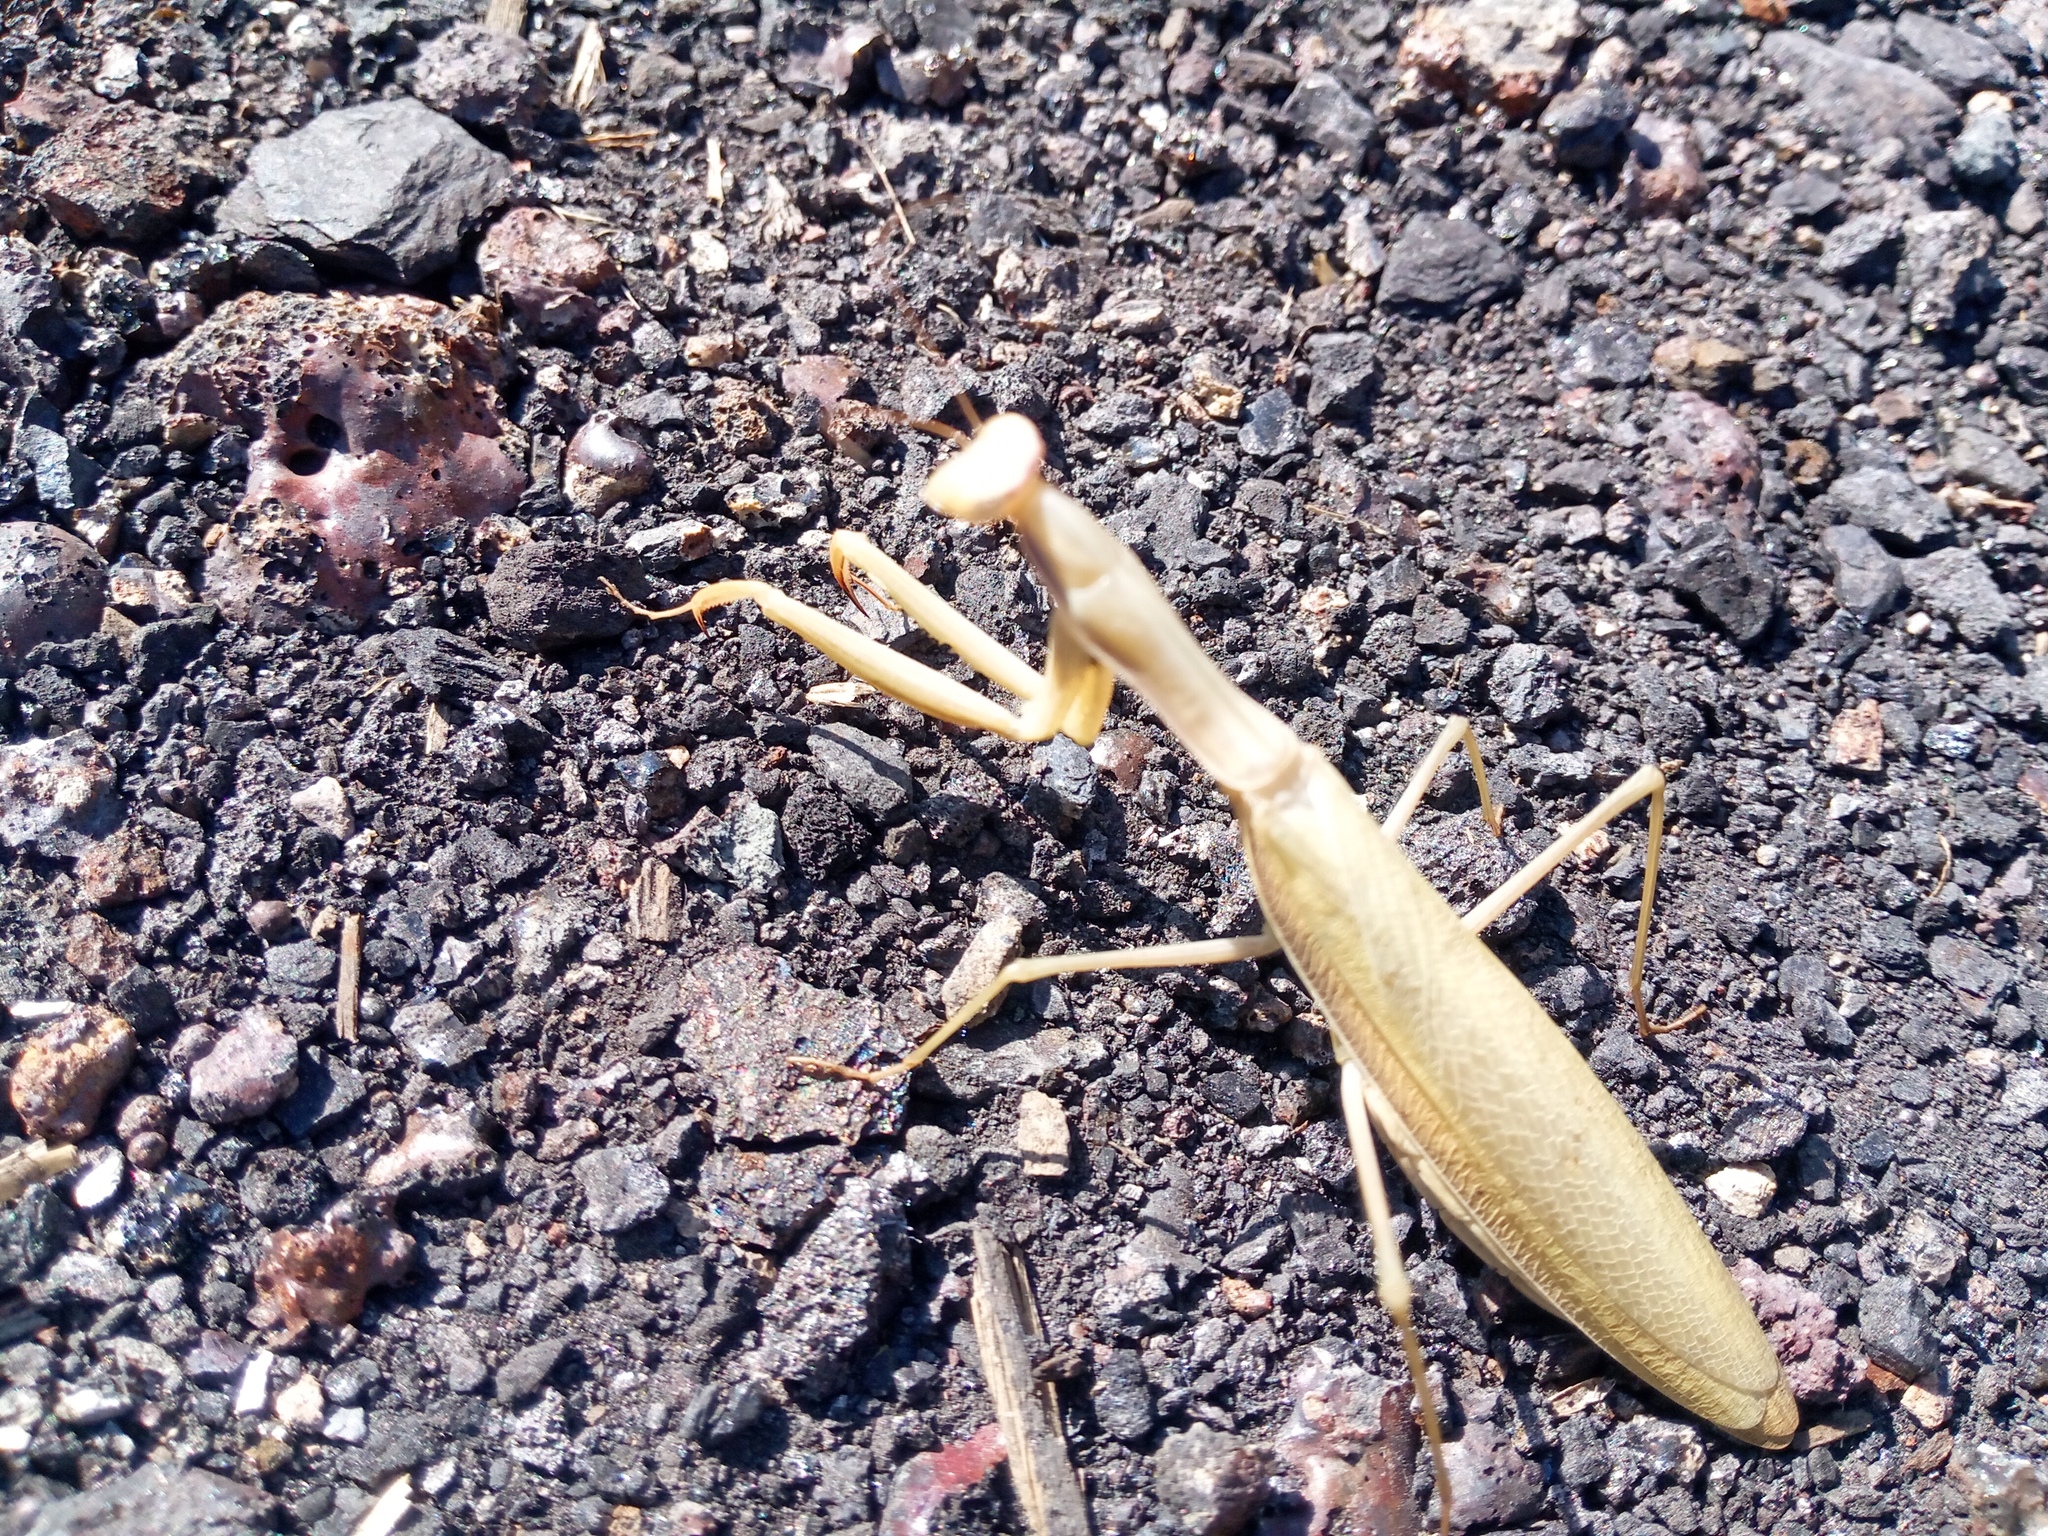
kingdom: Animalia
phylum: Arthropoda
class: Insecta
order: Mantodea
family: Mantidae
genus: Mantis
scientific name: Mantis religiosa
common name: Praying mantis
